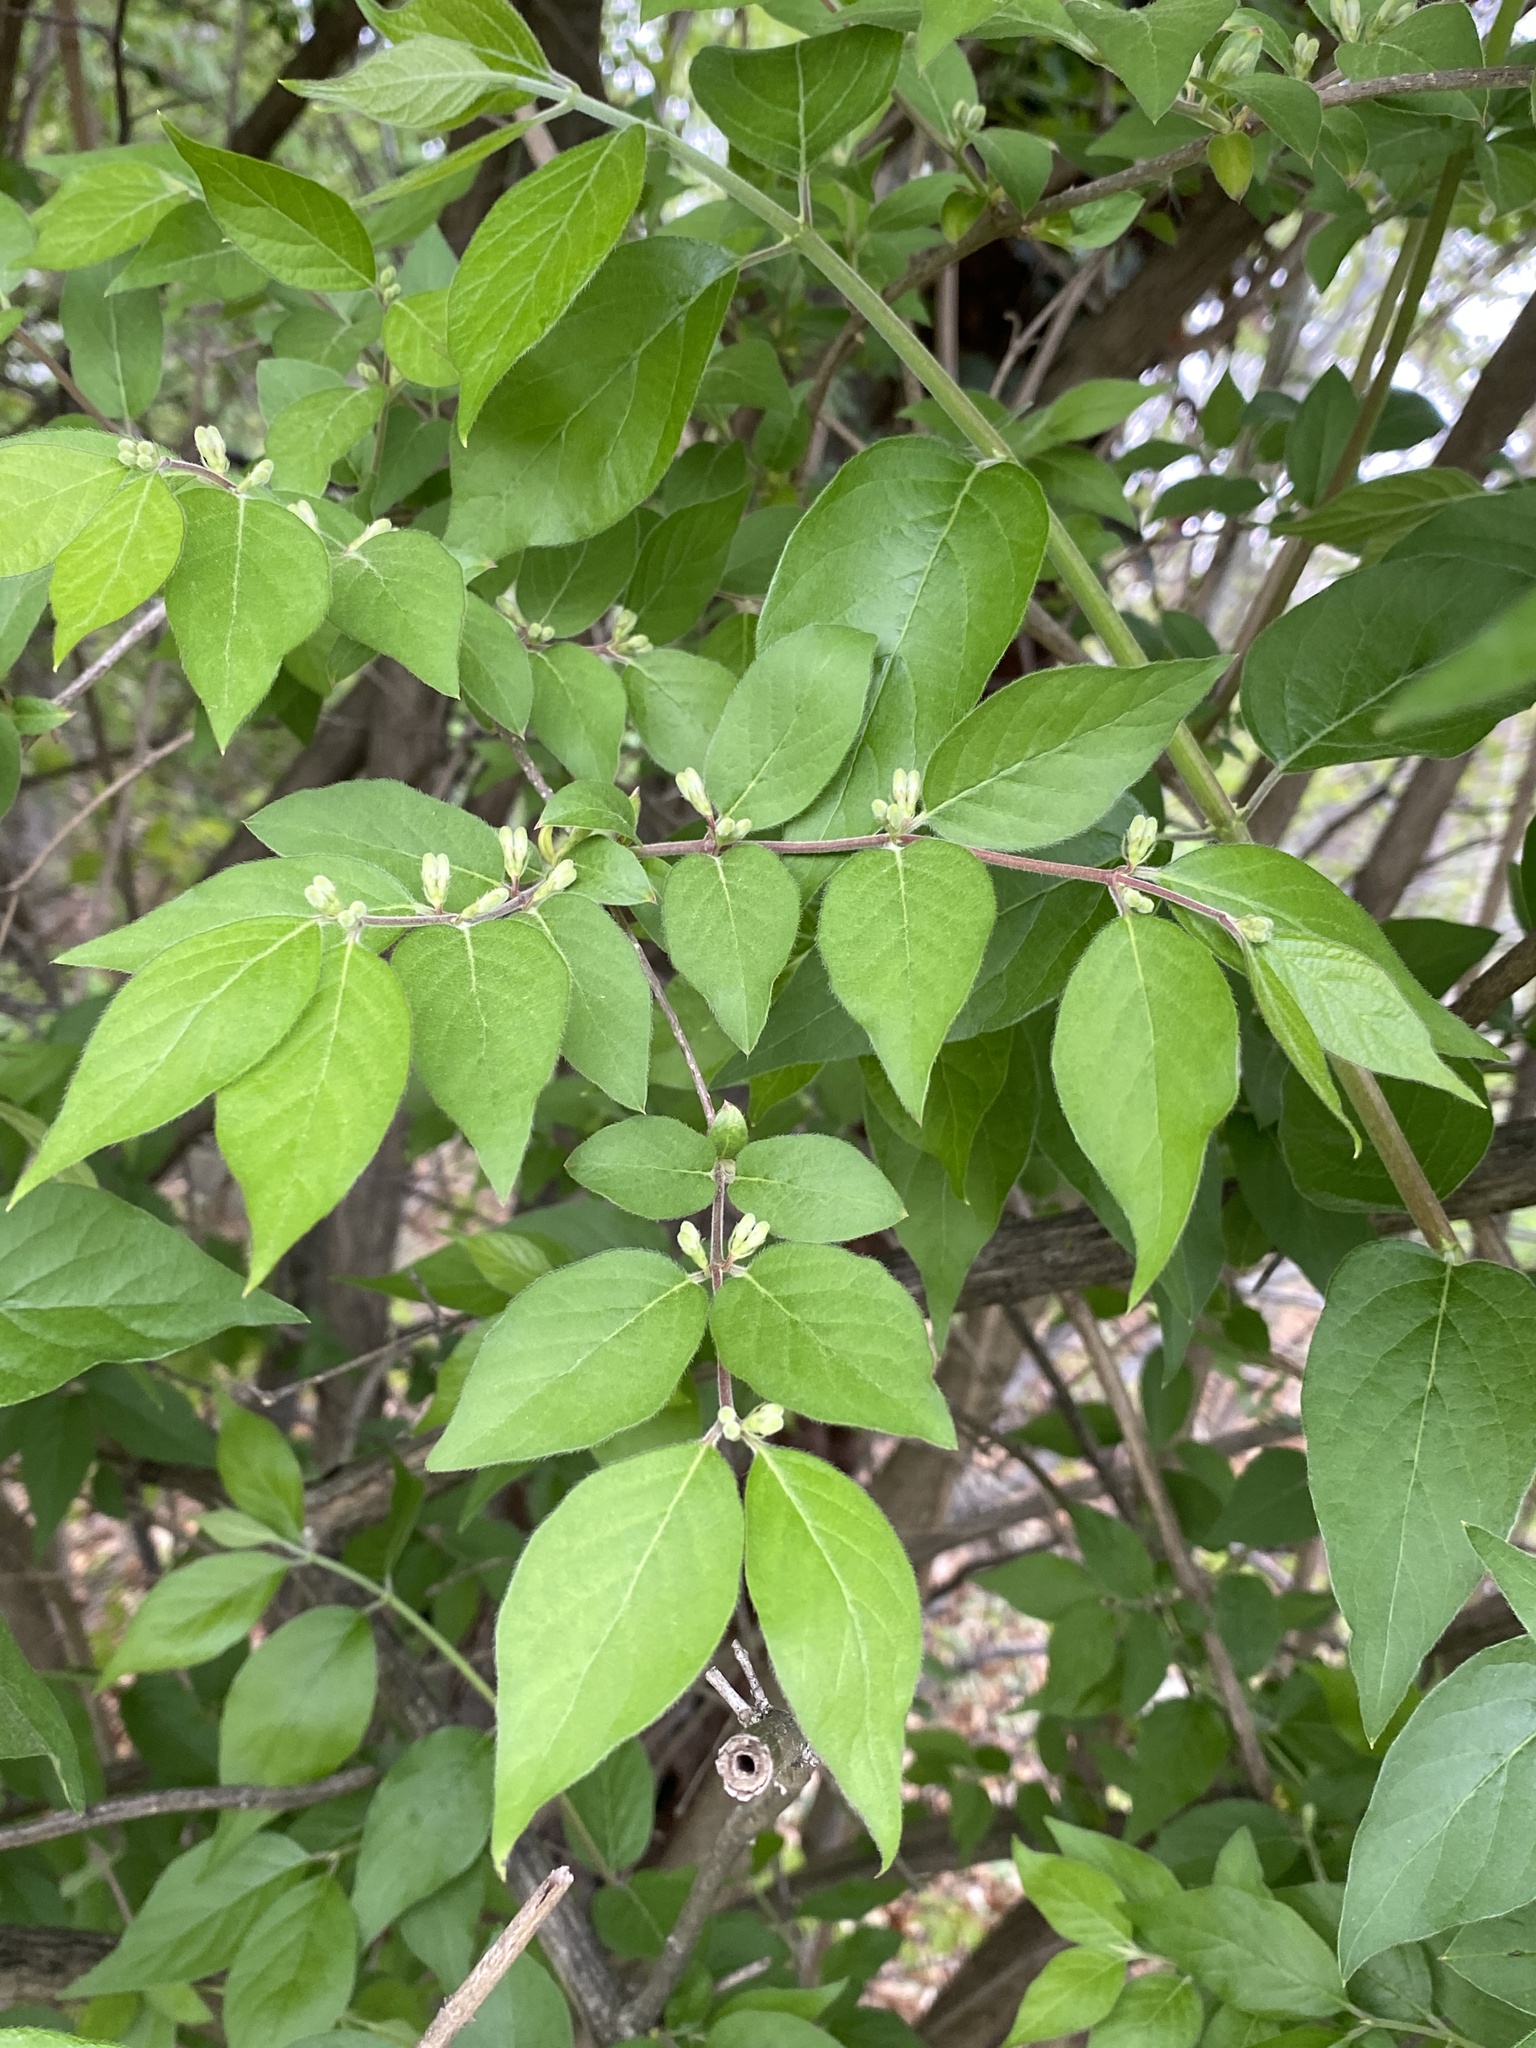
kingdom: Plantae
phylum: Tracheophyta
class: Magnoliopsida
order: Dipsacales
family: Caprifoliaceae
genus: Lonicera
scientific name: Lonicera maackii
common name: Amur honeysuckle
